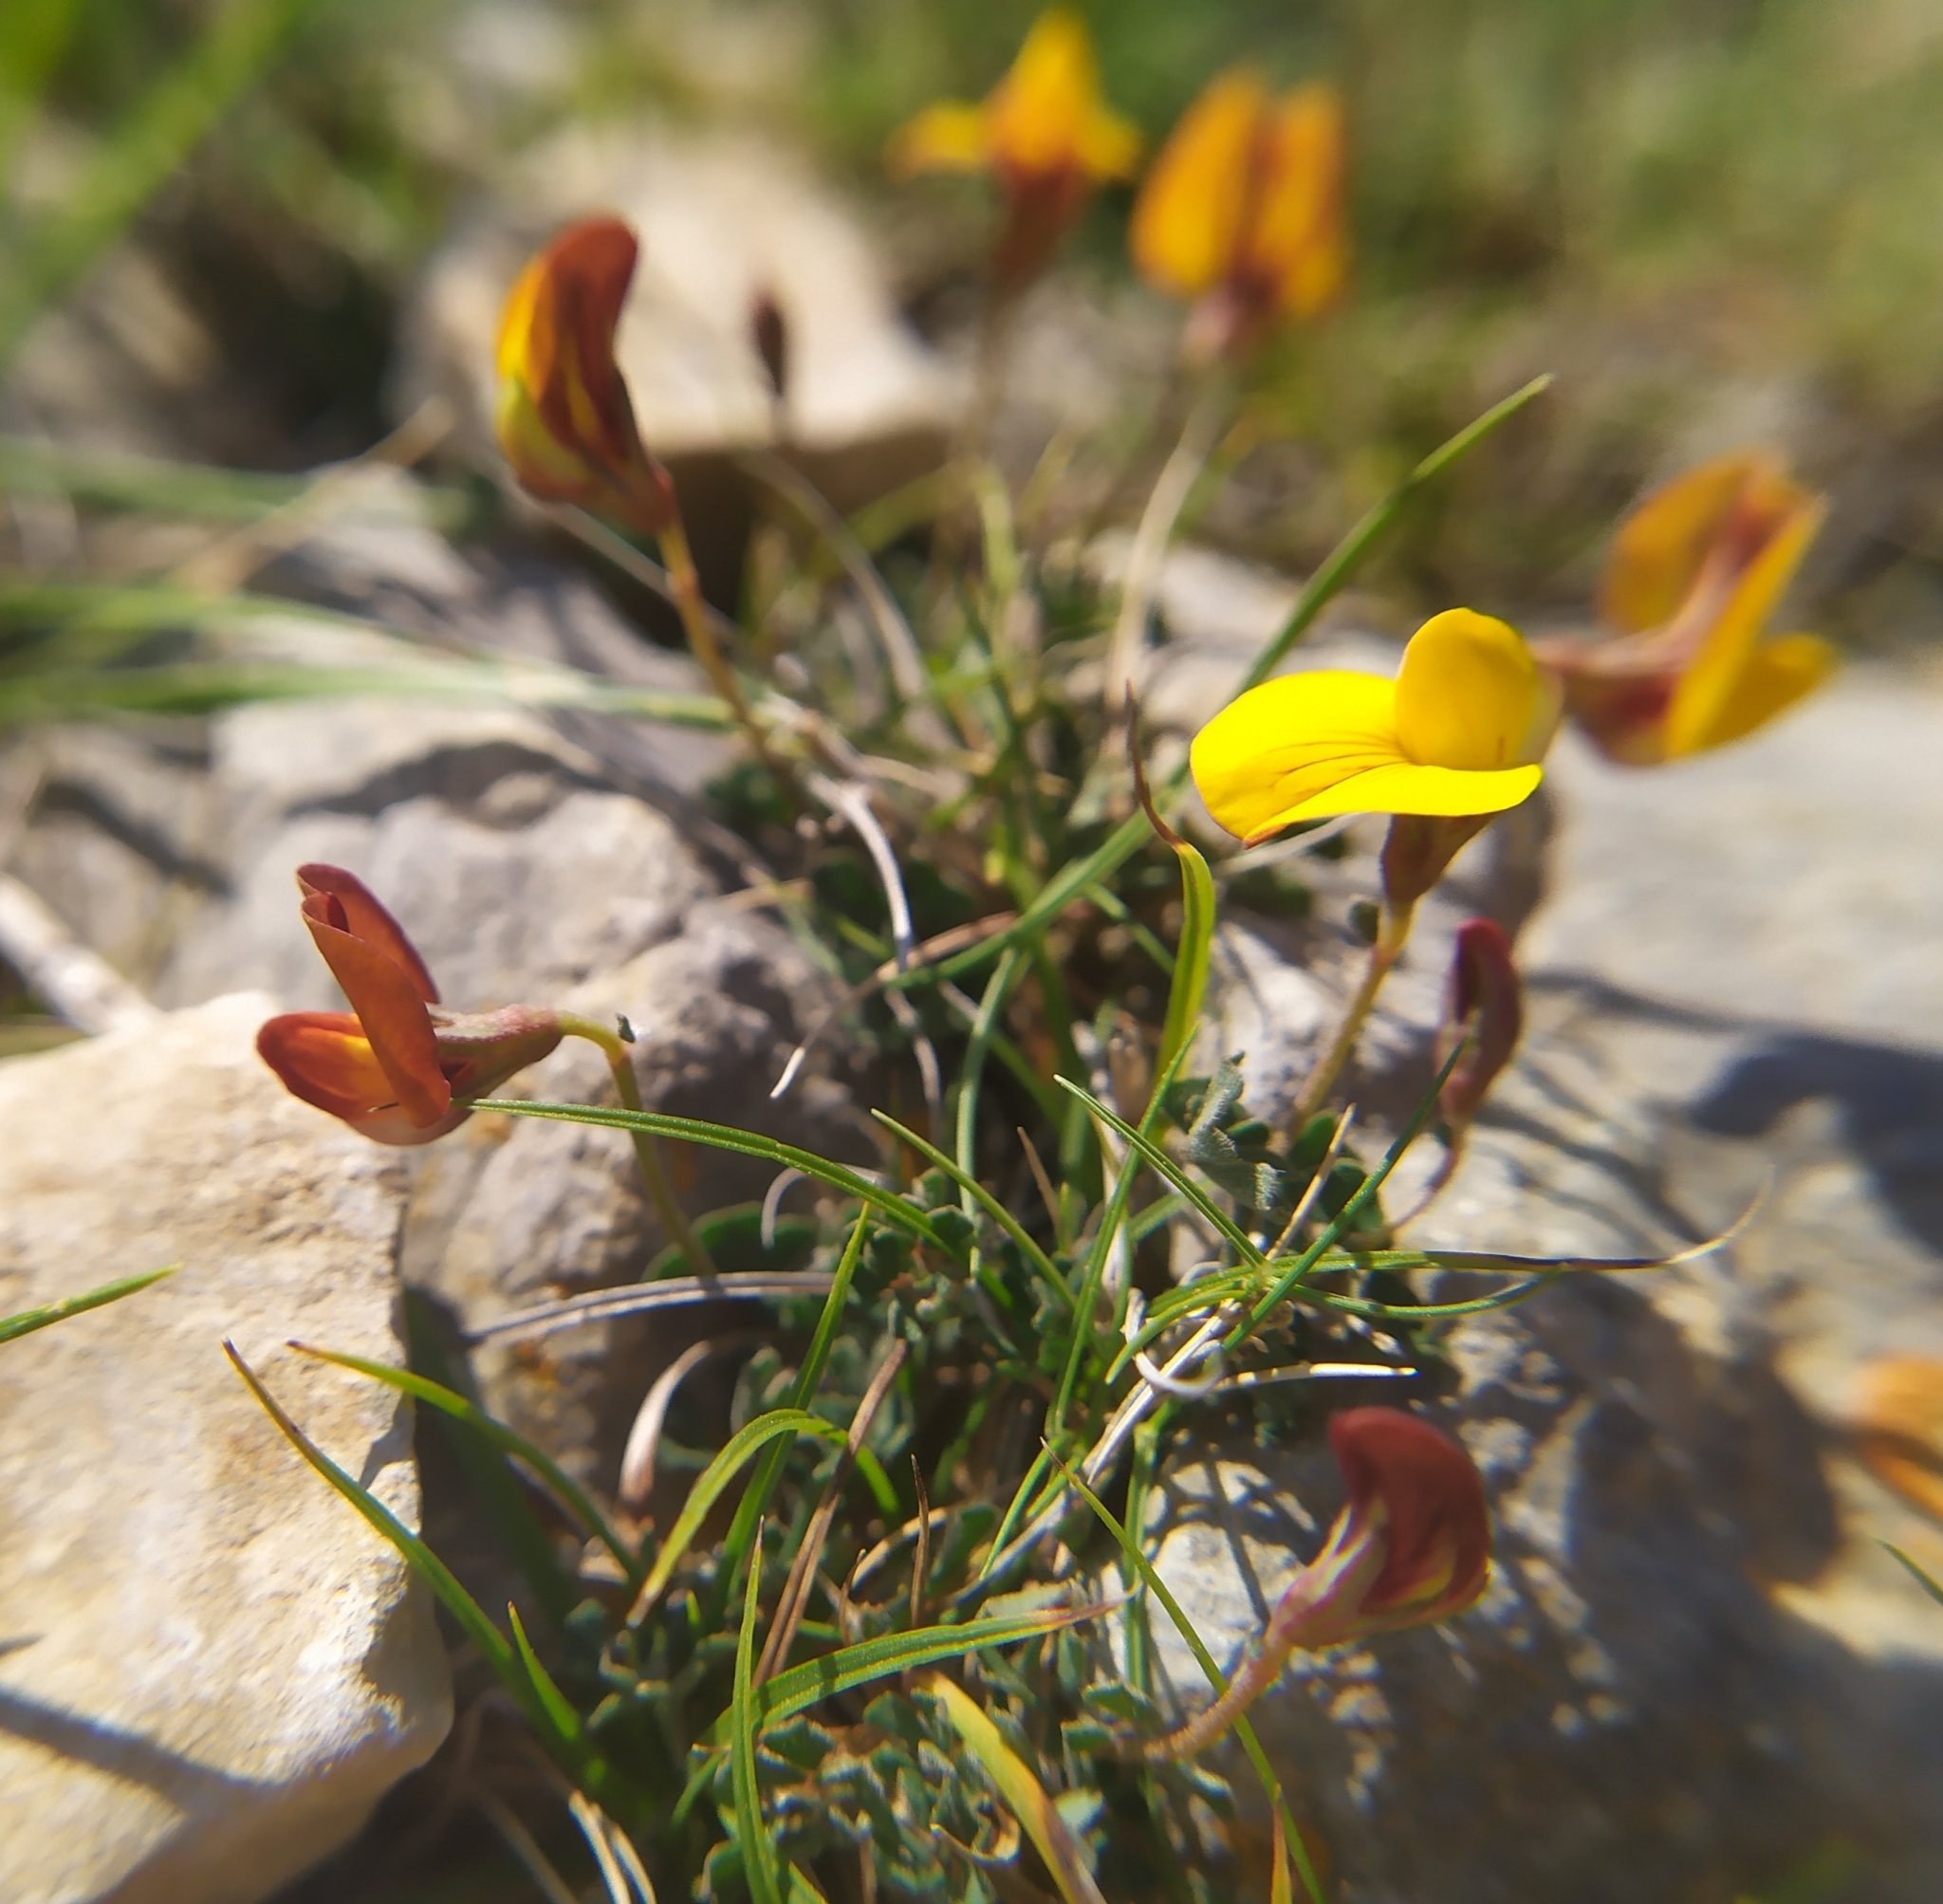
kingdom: Plantae
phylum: Tracheophyta
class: Magnoliopsida
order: Fabales
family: Fabaceae
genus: Lotus
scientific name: Lotus tetraphyllus
